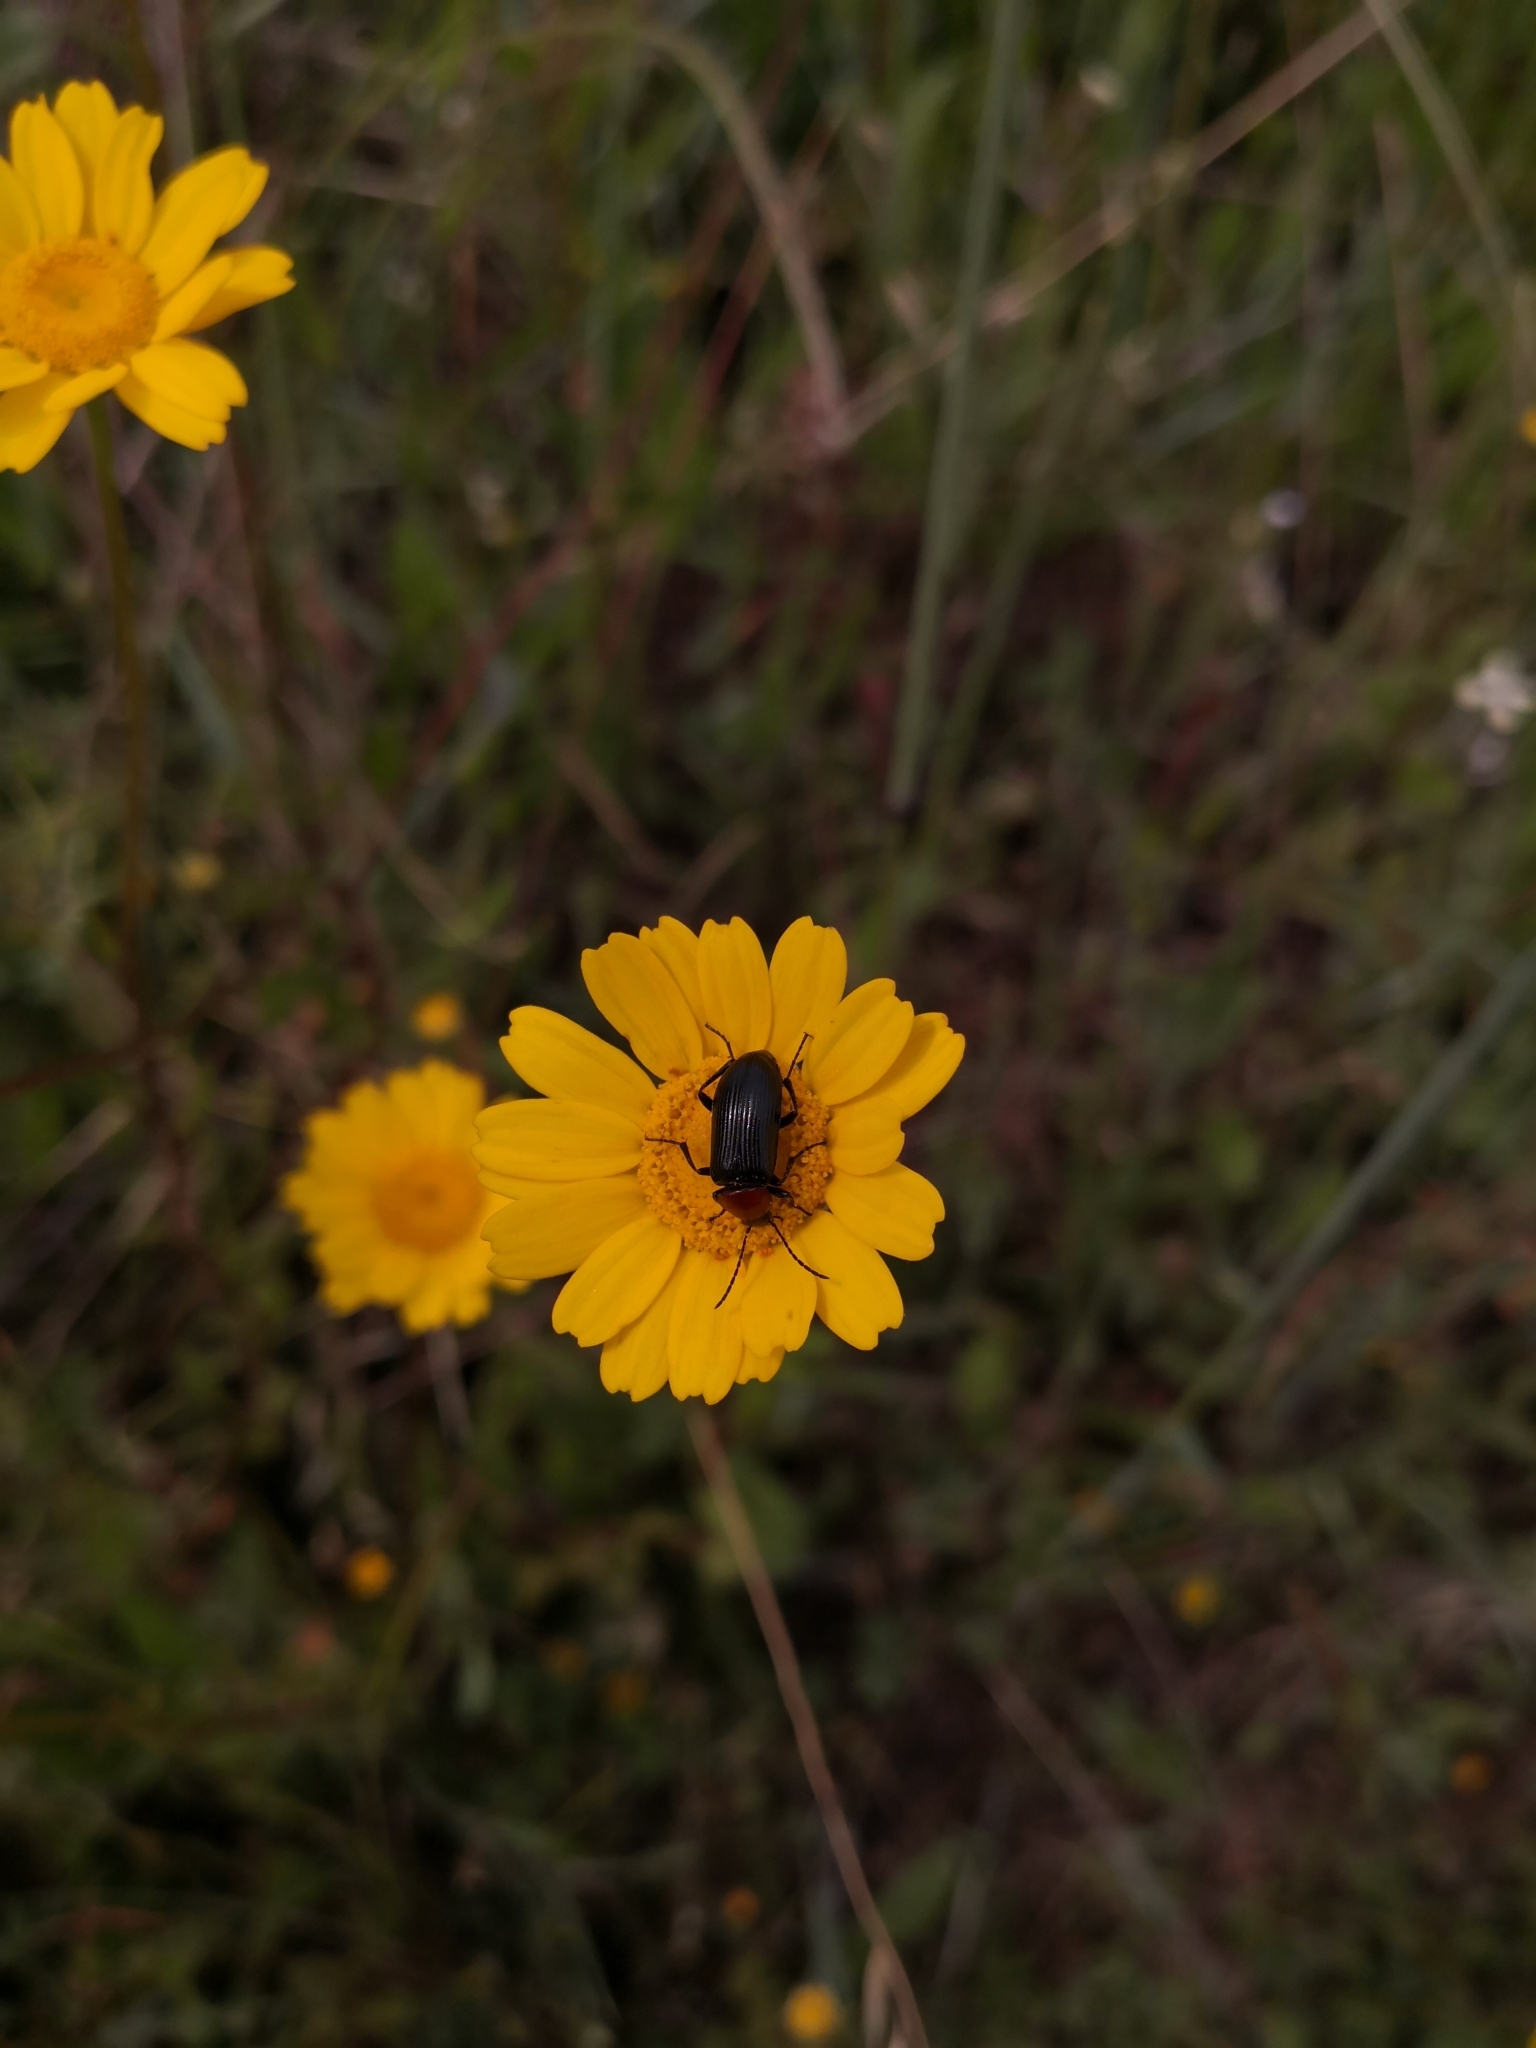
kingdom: Animalia
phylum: Arthropoda
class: Insecta
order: Coleoptera
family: Tenebrionidae
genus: Heliotaurus
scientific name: Heliotaurus ruficollis
